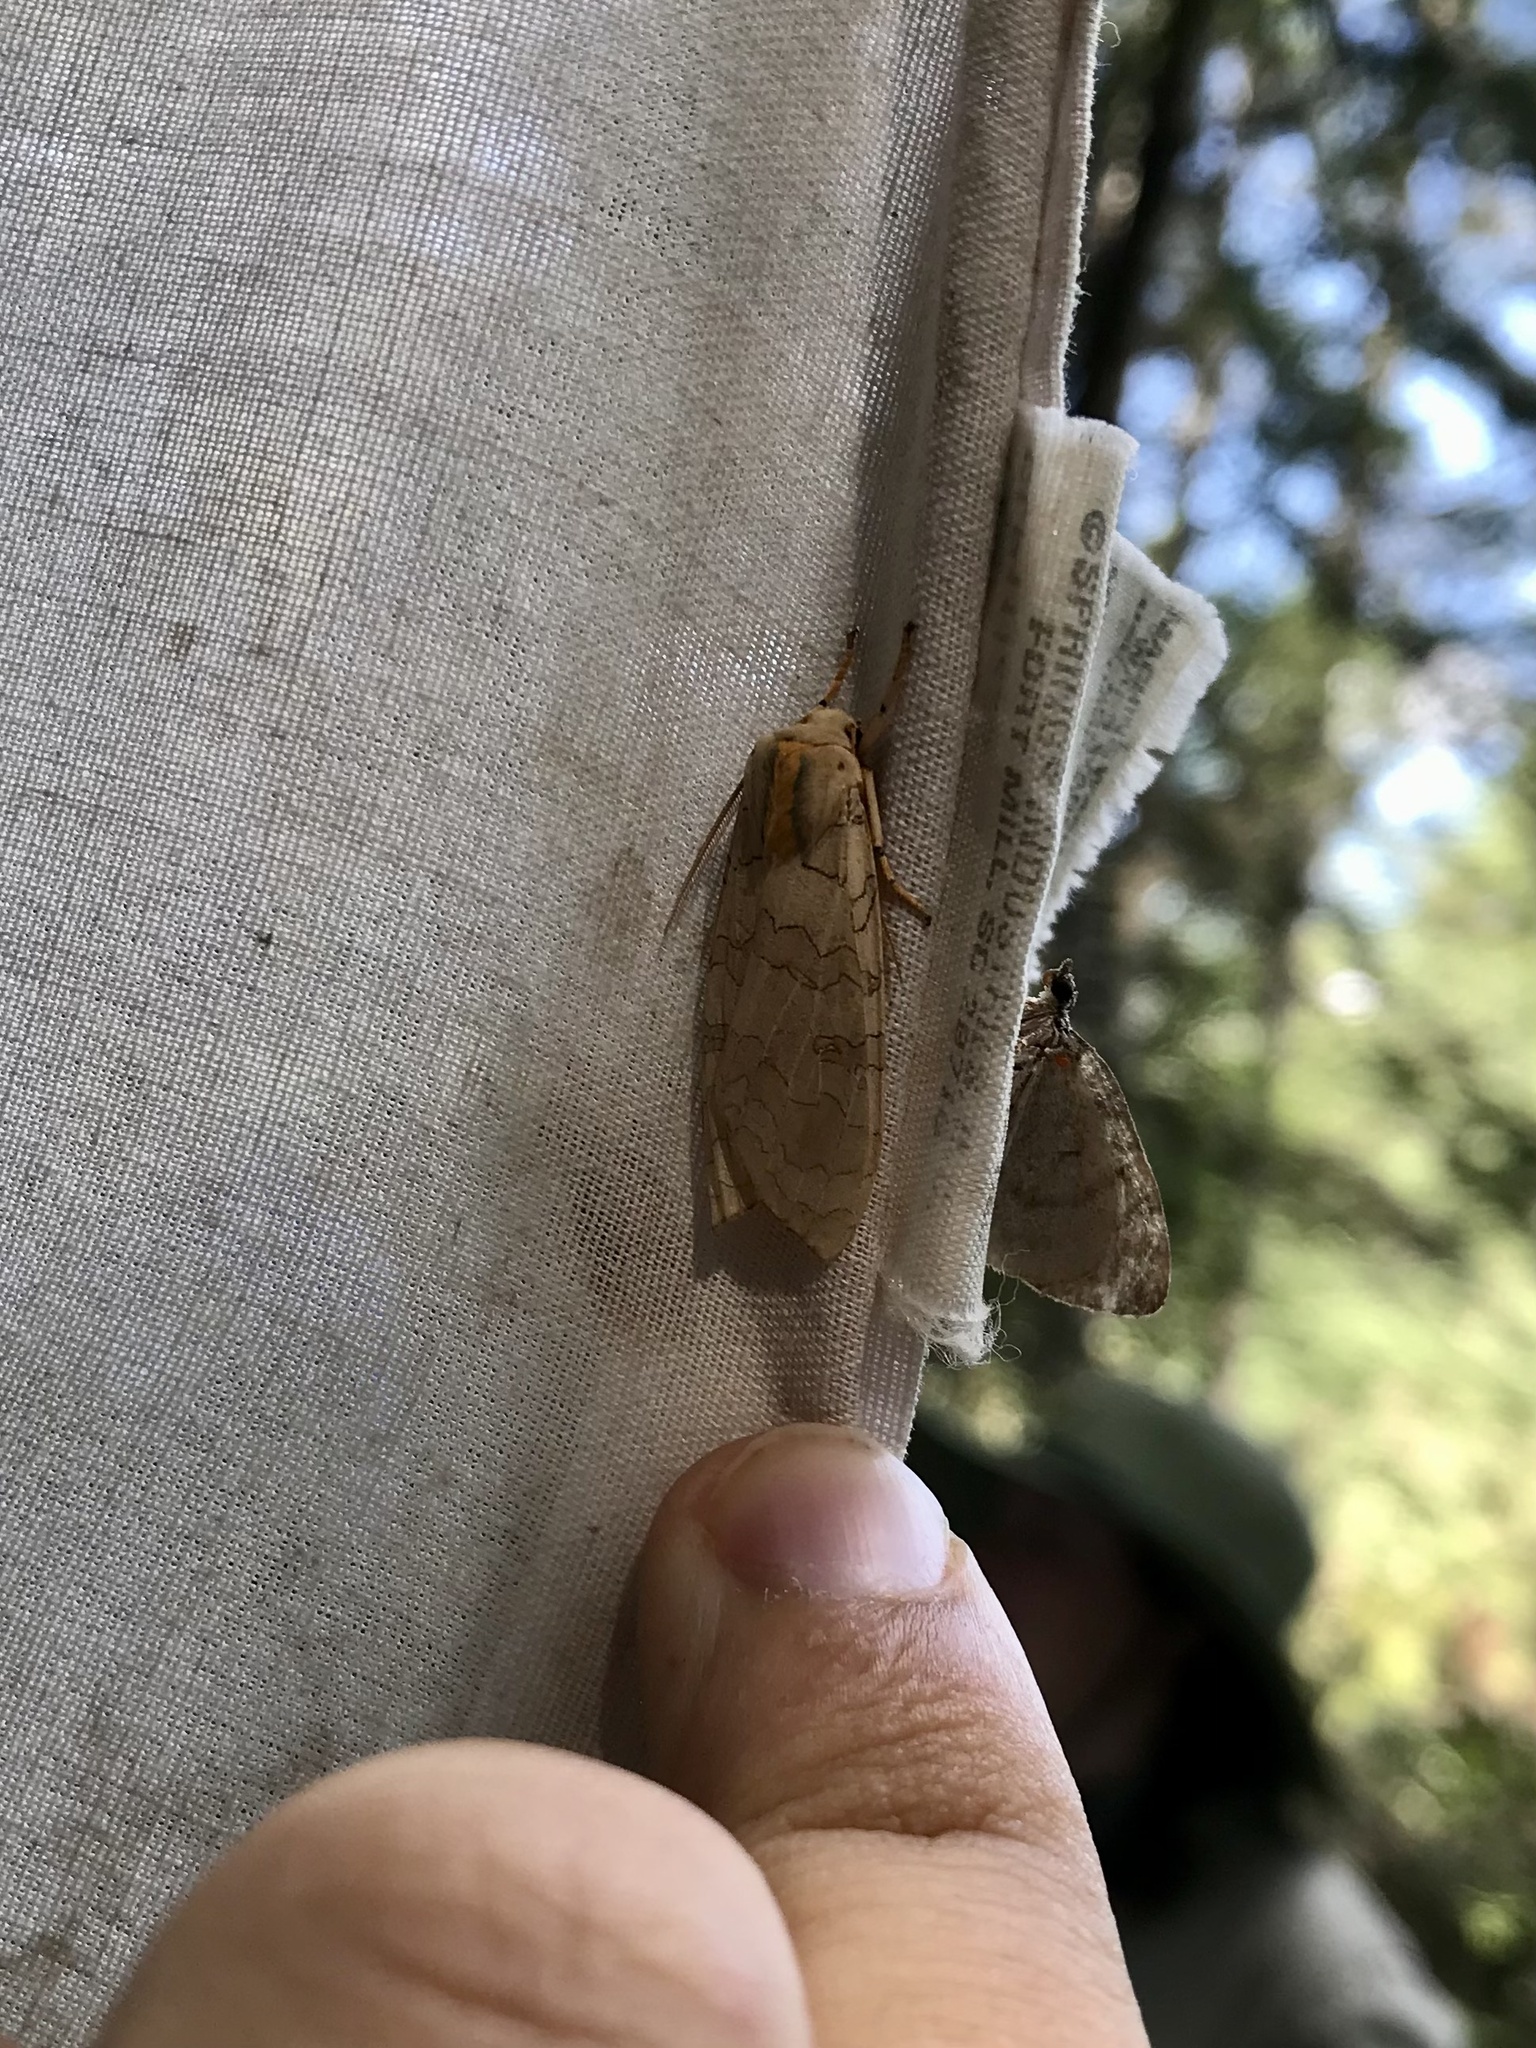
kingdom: Animalia
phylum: Arthropoda
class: Insecta
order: Lepidoptera
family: Erebidae
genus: Halysidota
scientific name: Halysidota tessellaris
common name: Banded tussock moth
